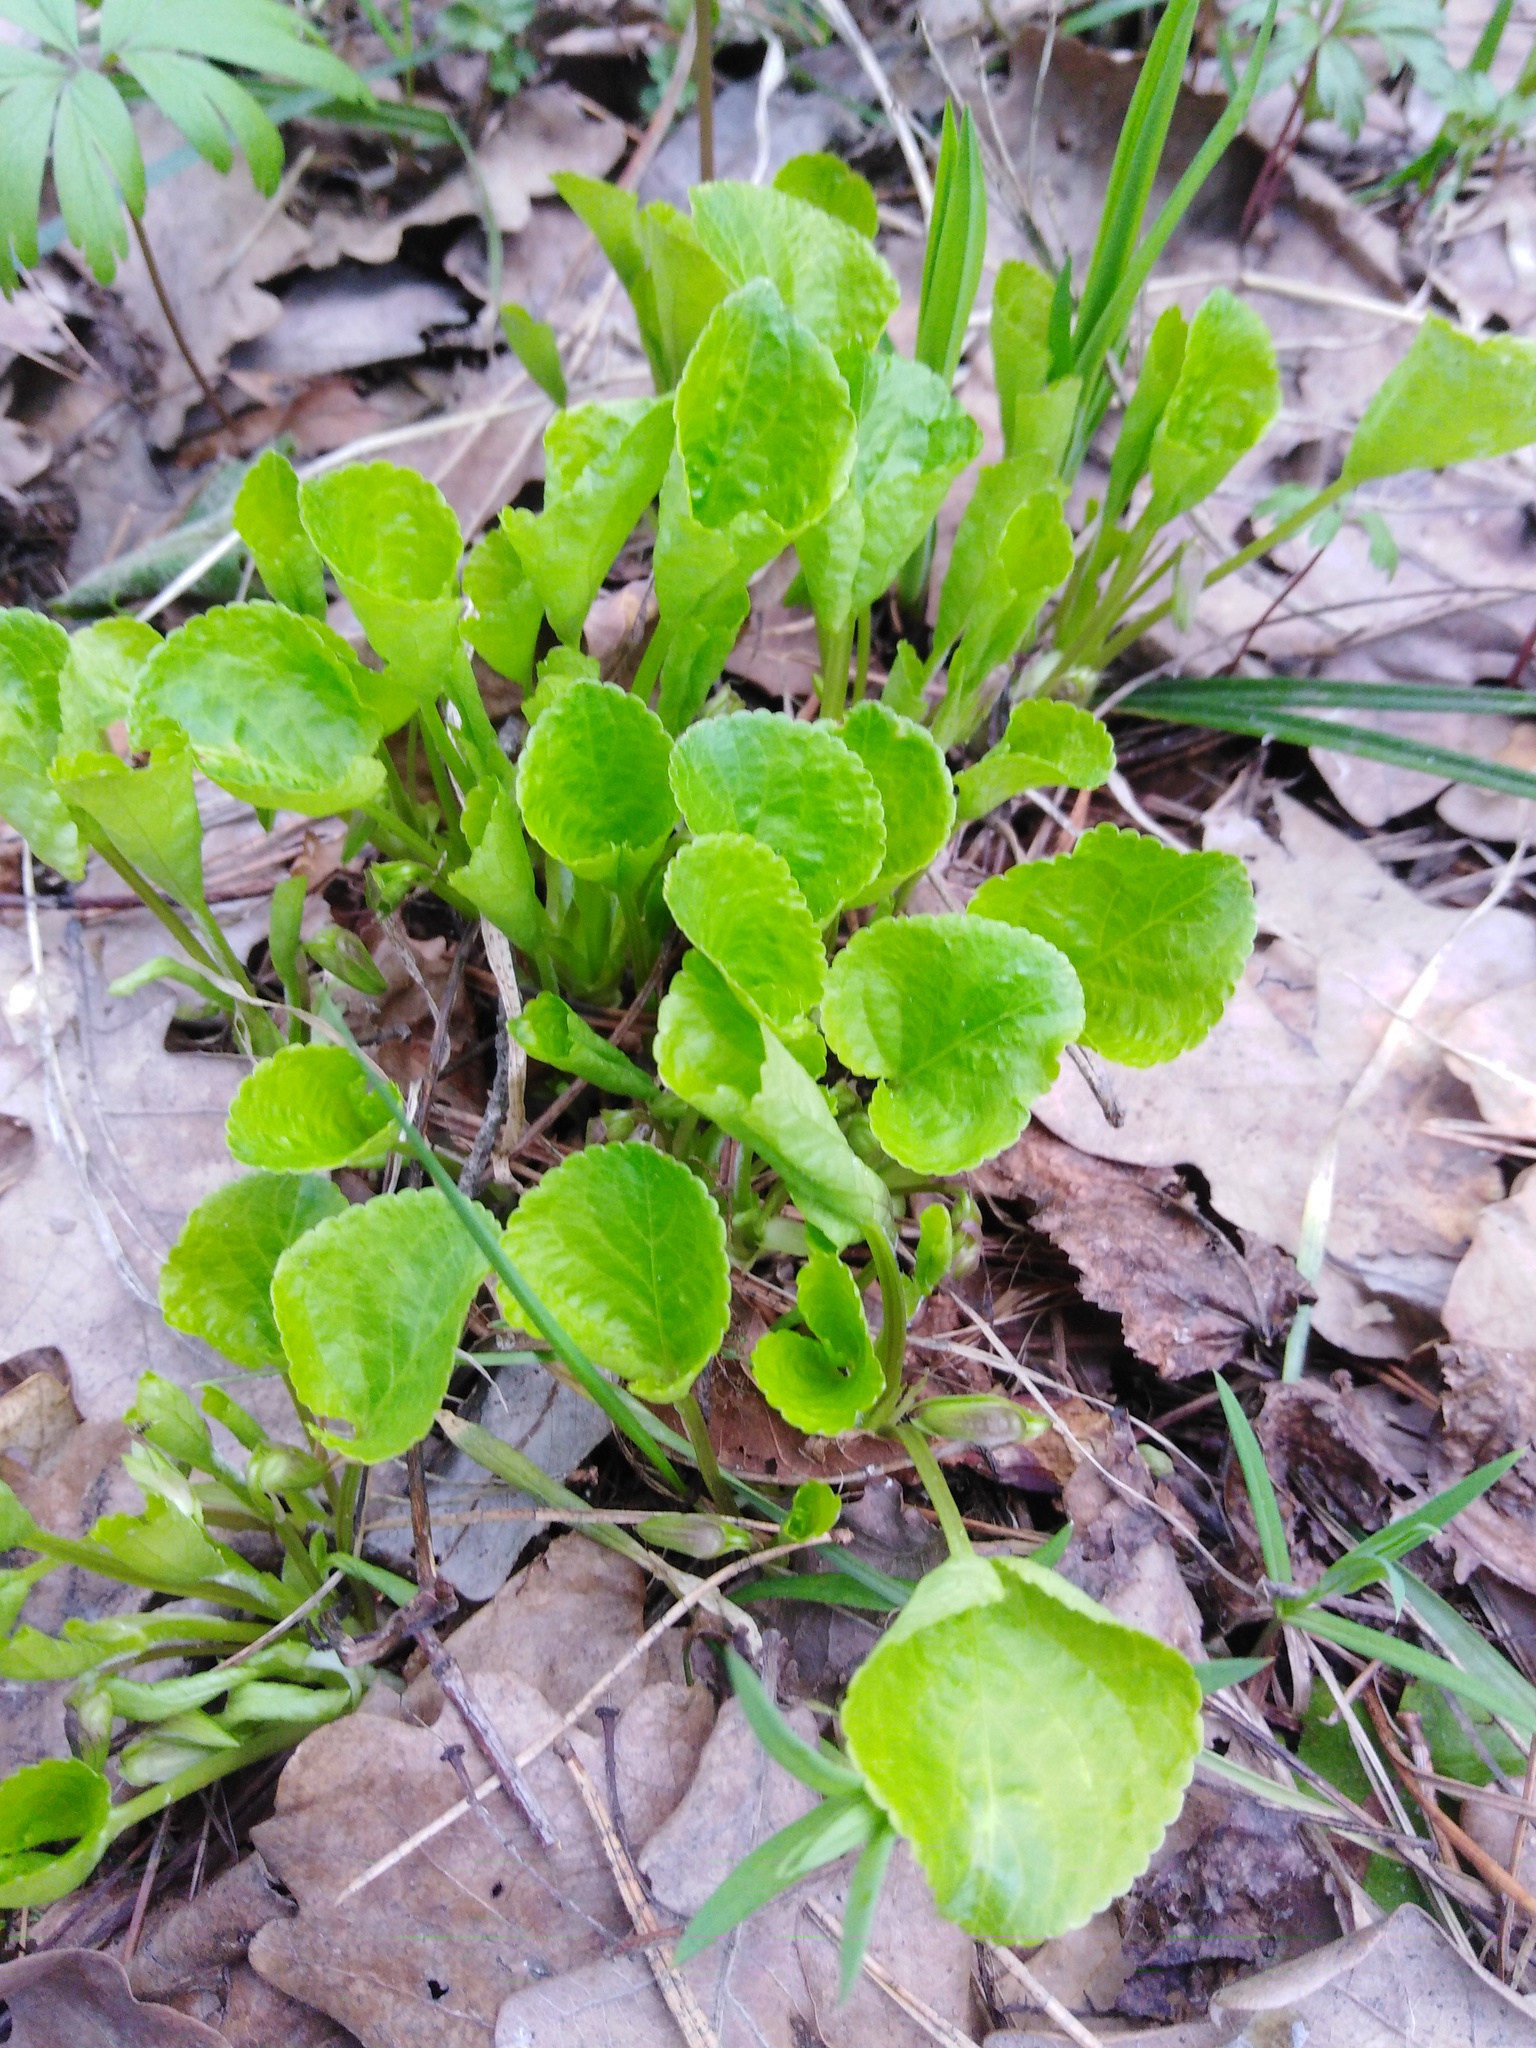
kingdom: Plantae
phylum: Tracheophyta
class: Magnoliopsida
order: Malpighiales
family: Violaceae
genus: Viola
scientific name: Viola mirabilis
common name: Wonder violet
